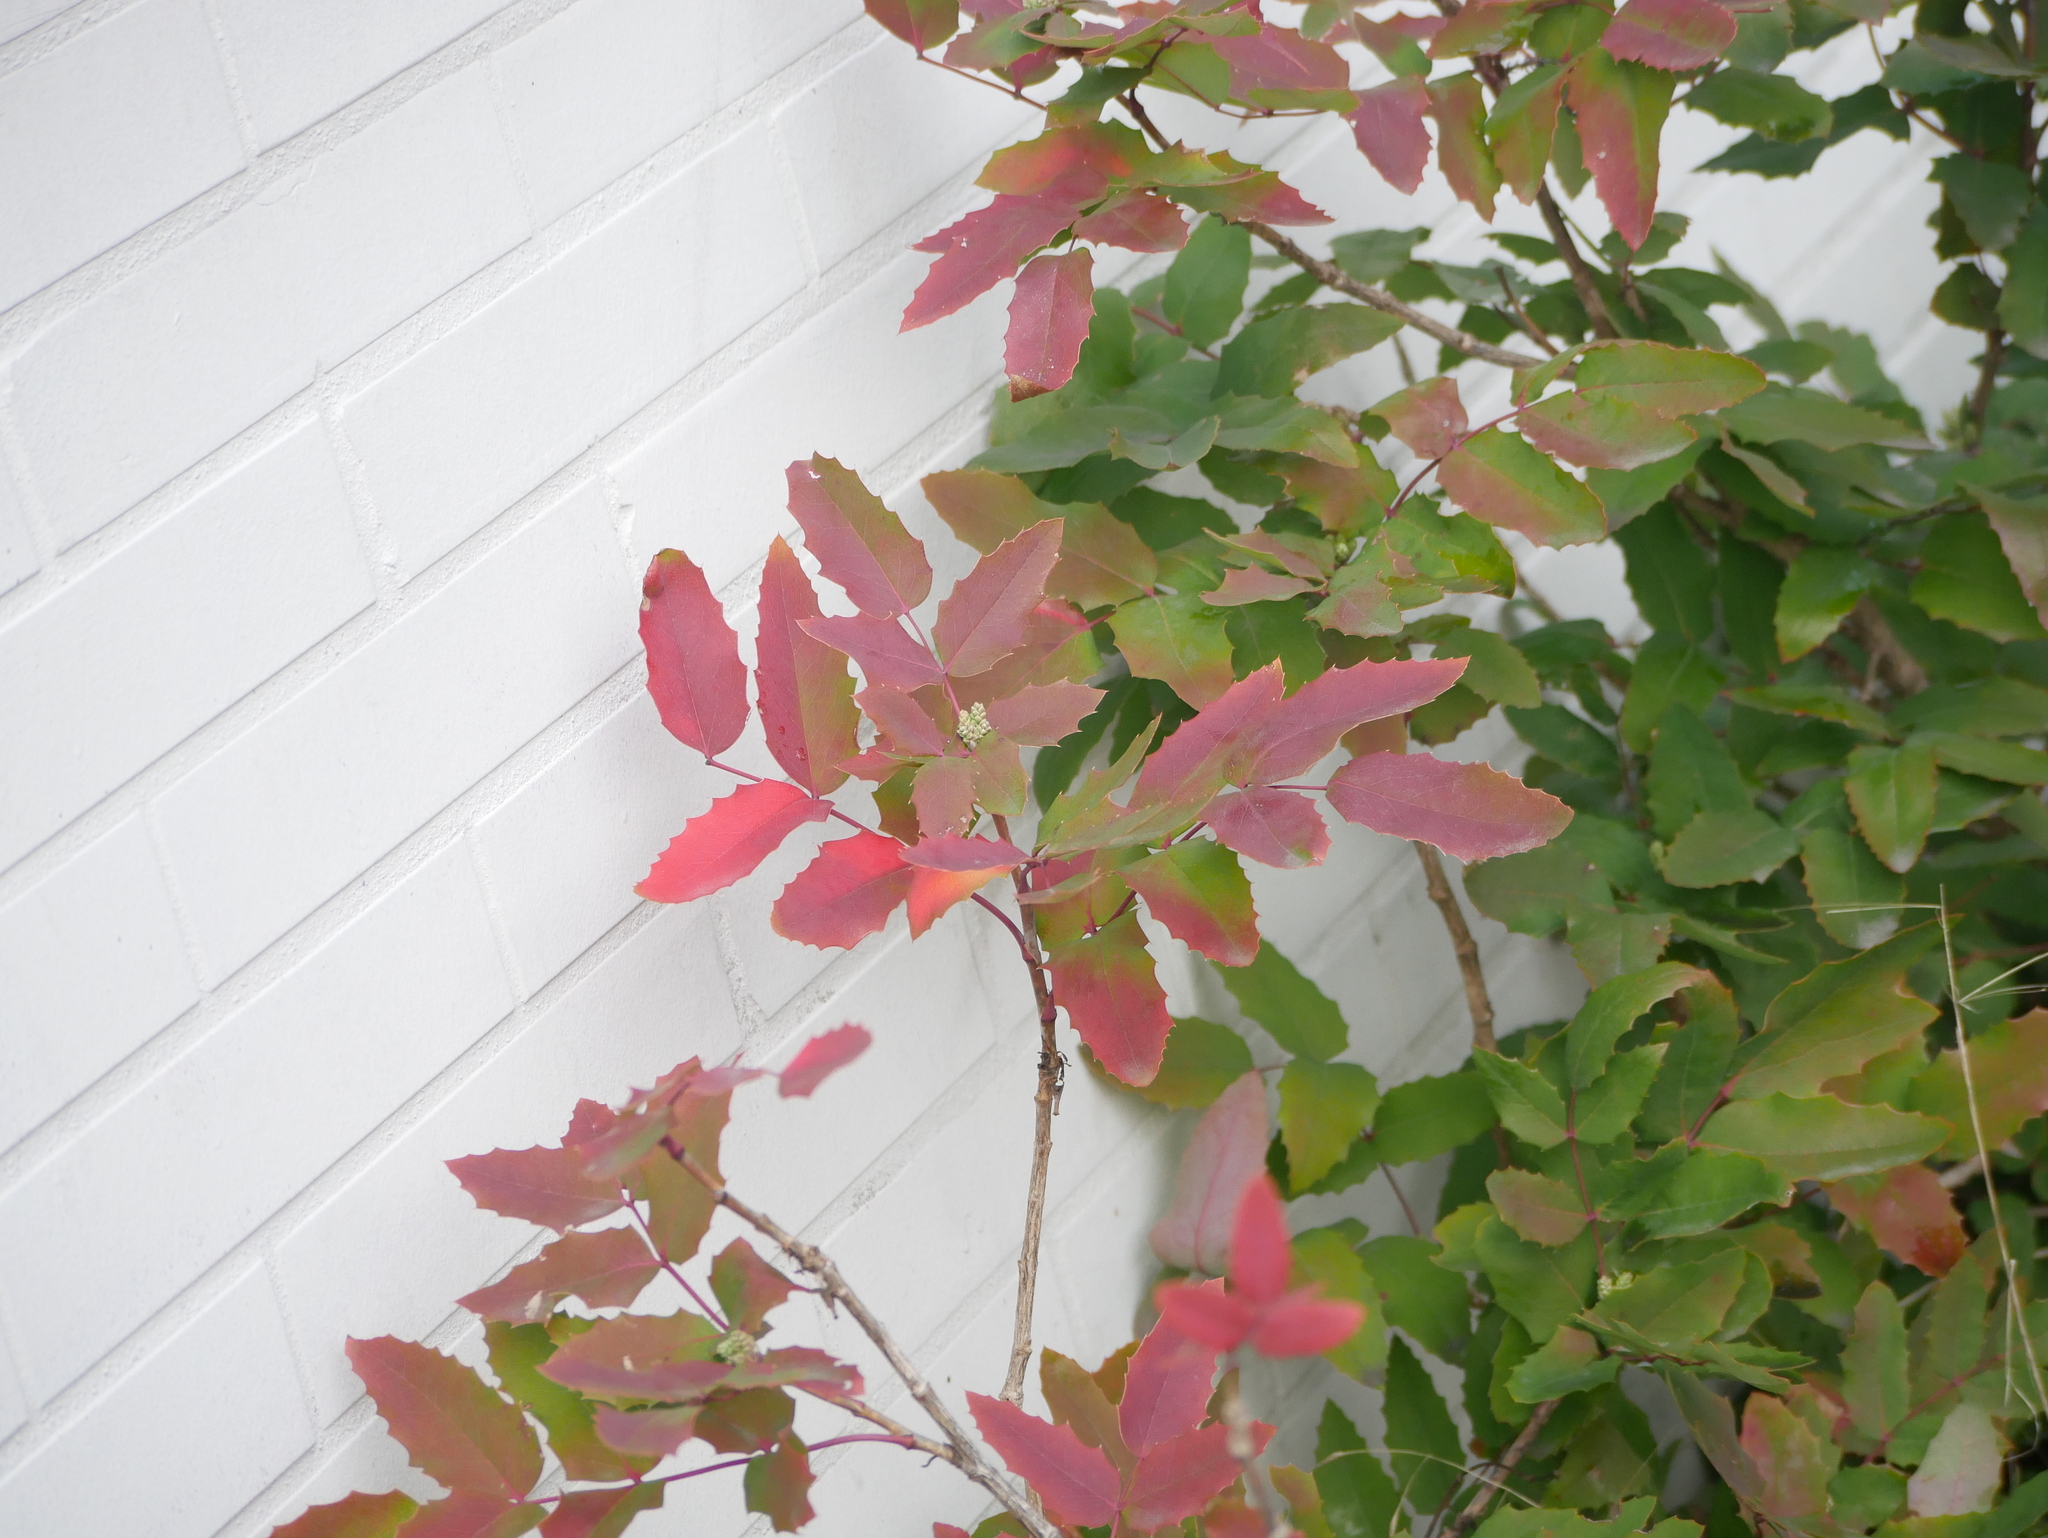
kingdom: Plantae
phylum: Tracheophyta
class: Magnoliopsida
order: Ranunculales
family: Berberidaceae
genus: Mahonia
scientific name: Mahonia aquifolium
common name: Oregon-grape
